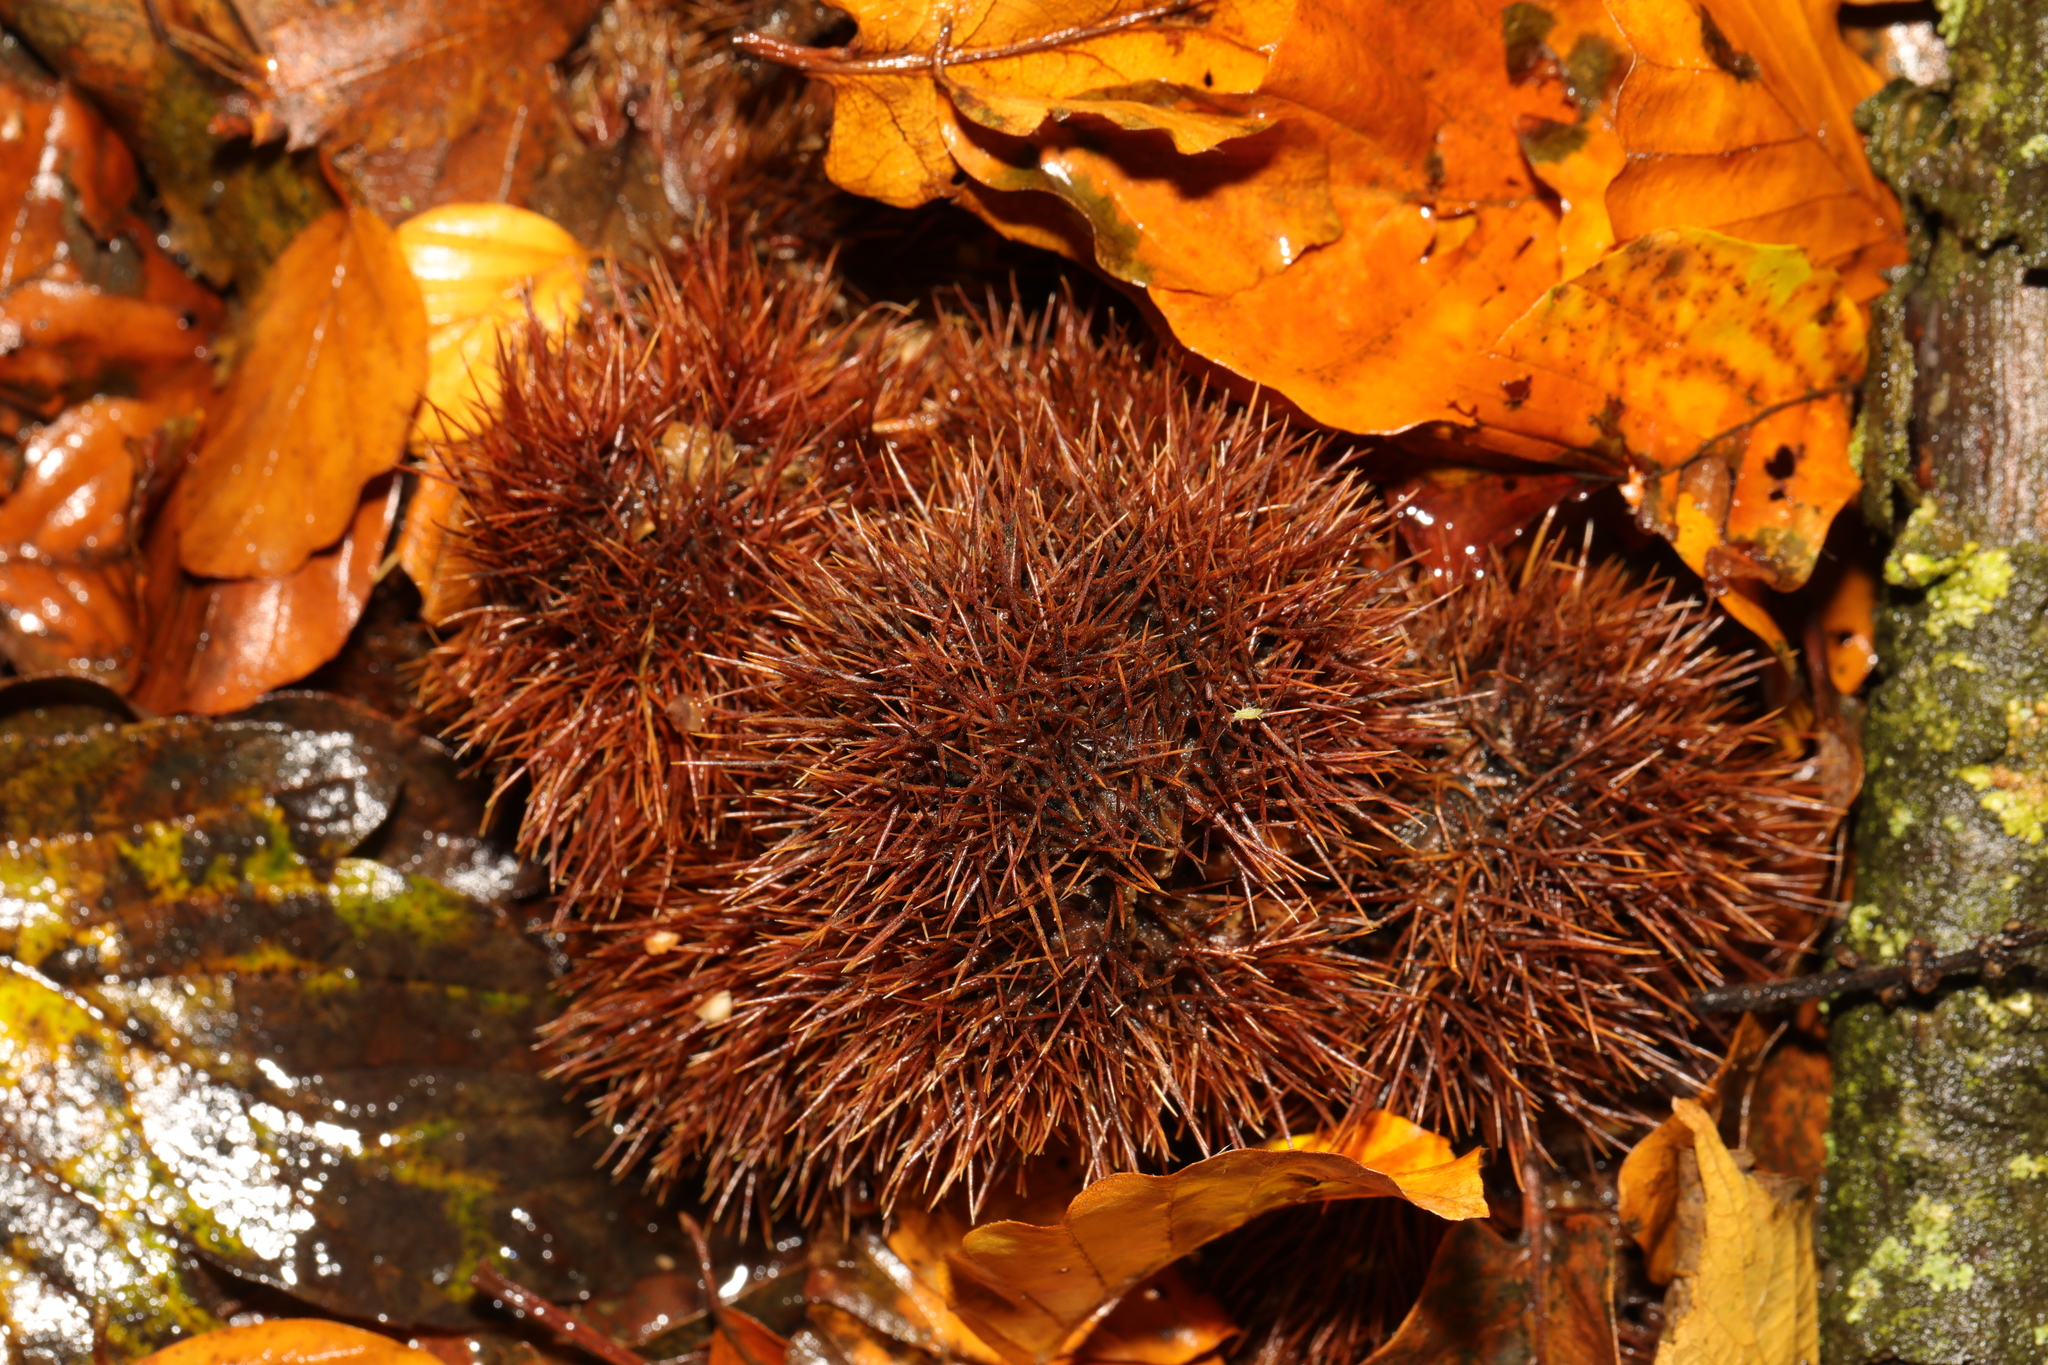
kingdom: Plantae
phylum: Tracheophyta
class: Magnoliopsida
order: Fagales
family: Fagaceae
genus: Castanea
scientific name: Castanea sativa
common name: Sweet chestnut
